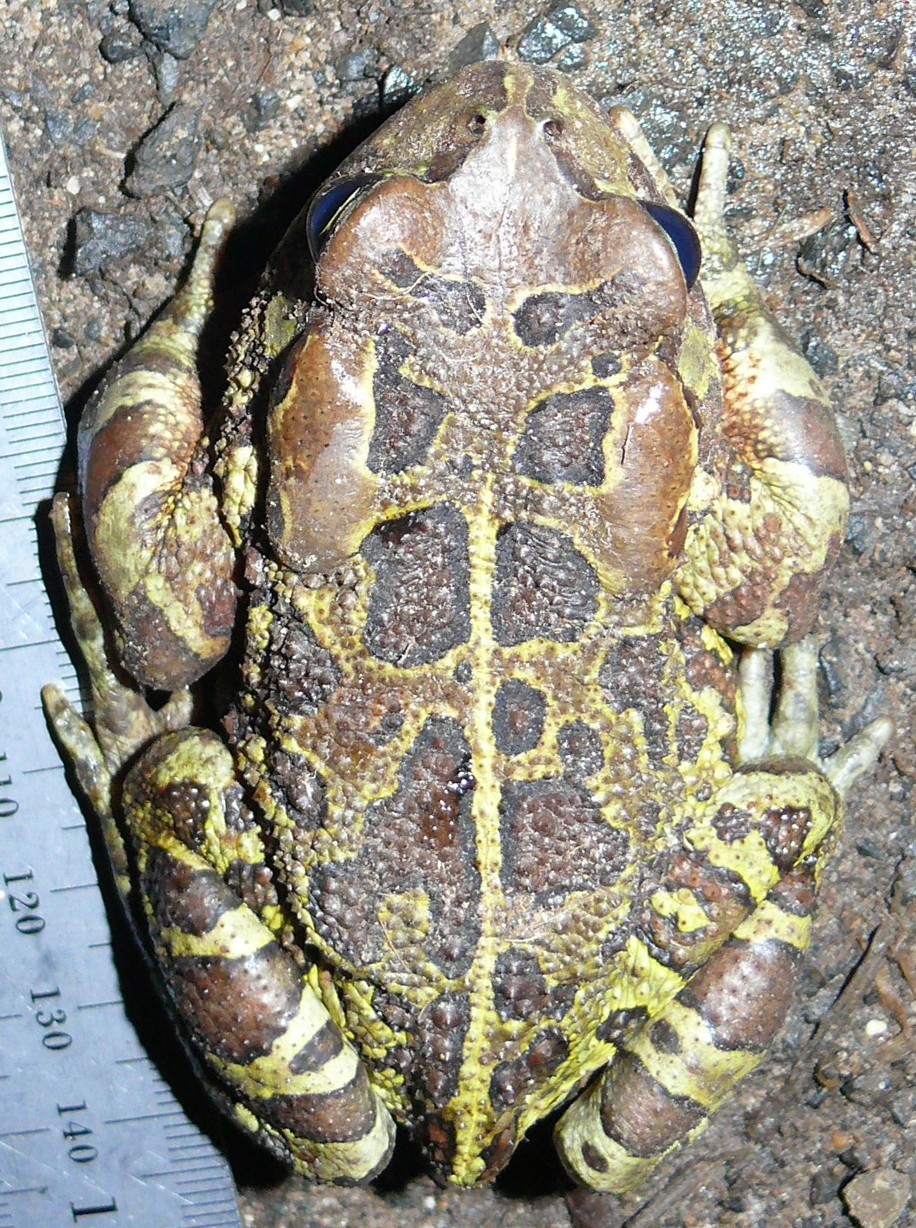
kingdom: Animalia
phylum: Chordata
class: Amphibia
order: Anura
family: Bufonidae
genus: Sclerophrys
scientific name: Sclerophrys pantherina
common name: Panther toad
